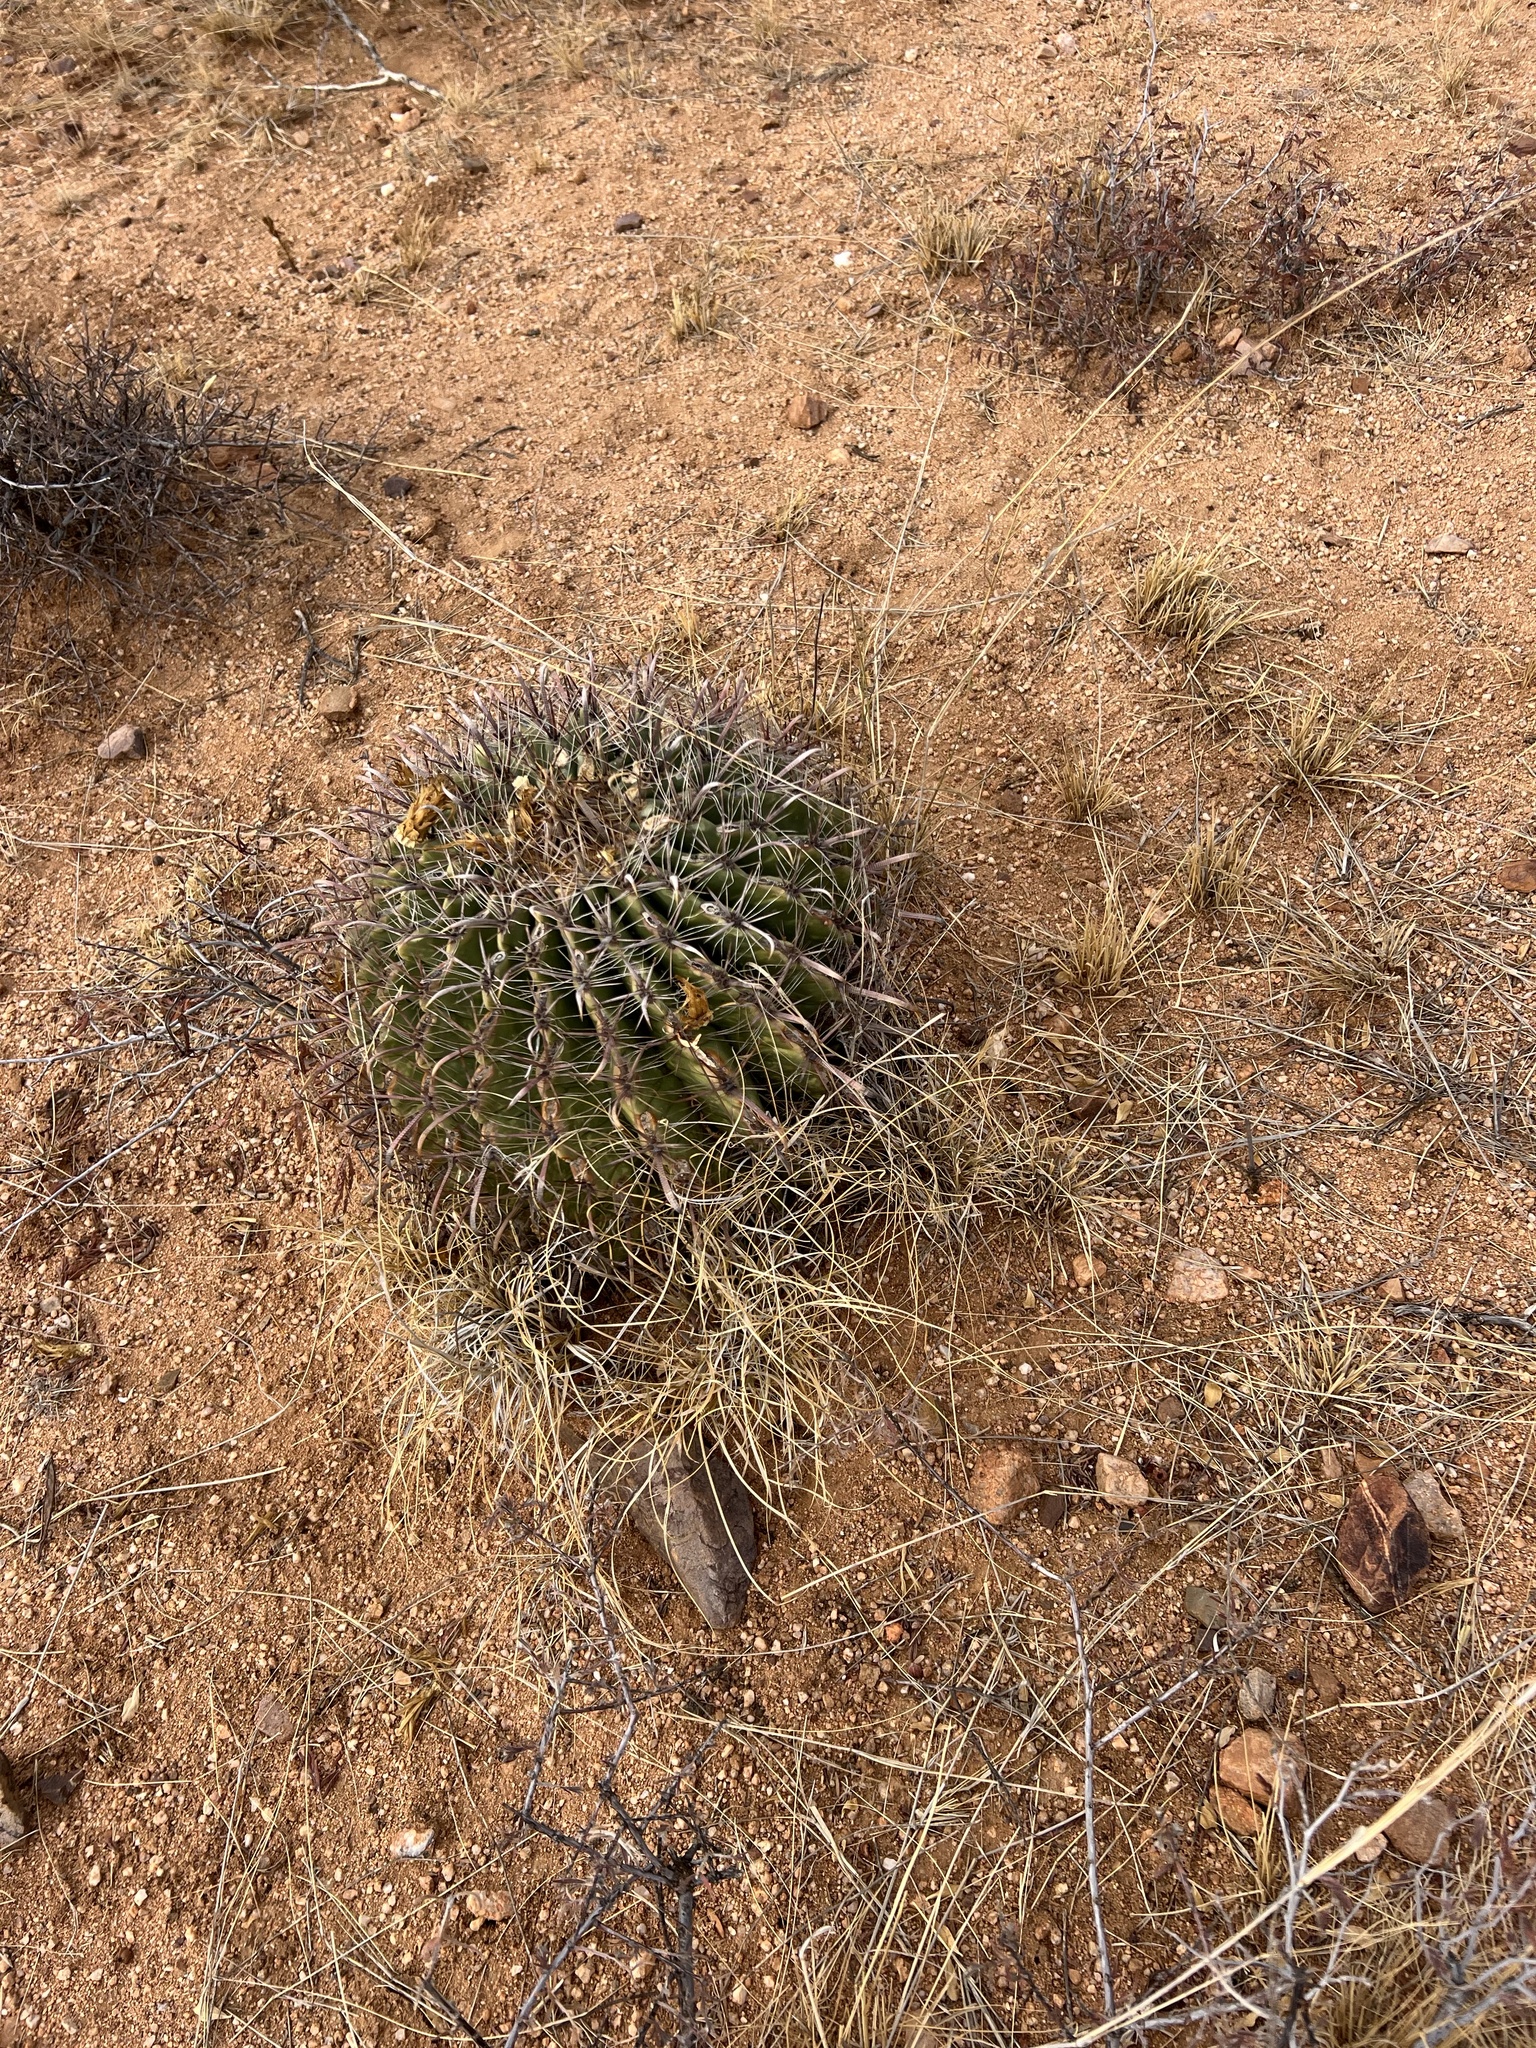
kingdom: Plantae
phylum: Tracheophyta
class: Magnoliopsida
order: Caryophyllales
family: Cactaceae
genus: Ferocactus
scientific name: Ferocactus wislizeni
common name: Candy barrel cactus
